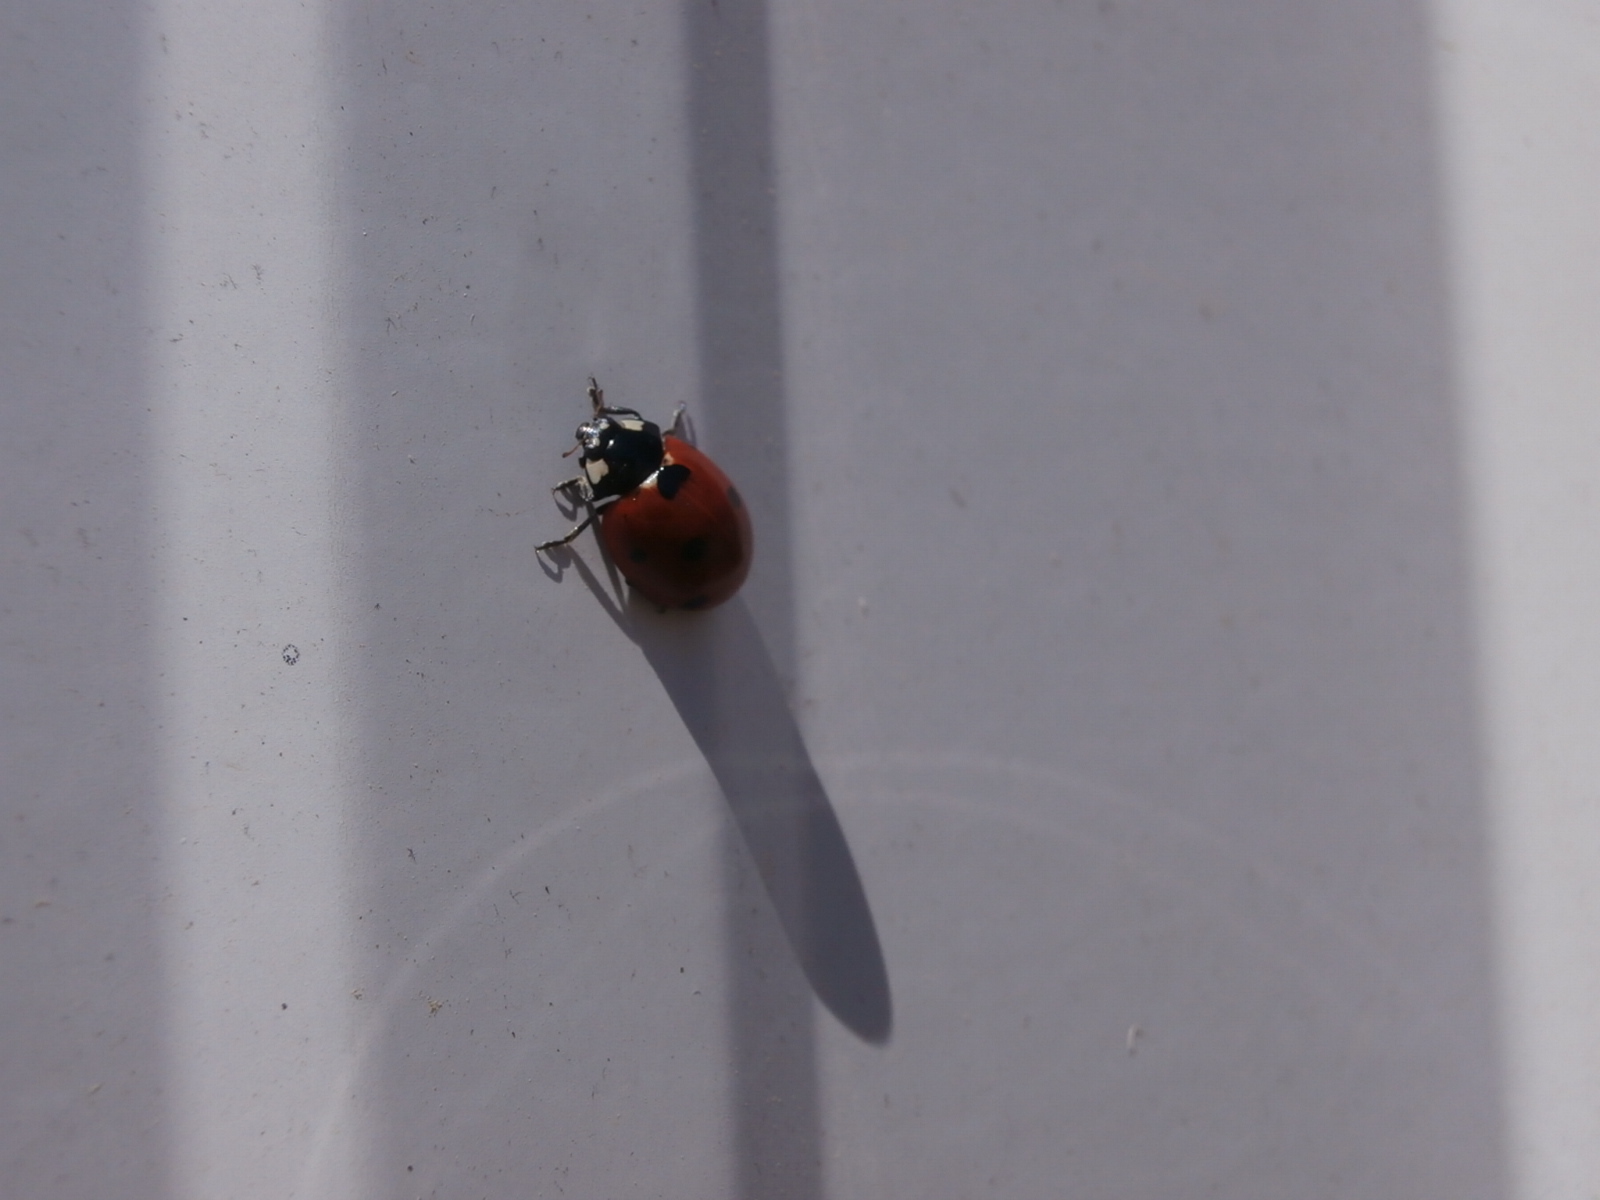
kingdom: Animalia
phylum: Arthropoda
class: Insecta
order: Coleoptera
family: Coccinellidae
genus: Coccinella
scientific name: Coccinella septempunctata
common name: Sevenspotted lady beetle
